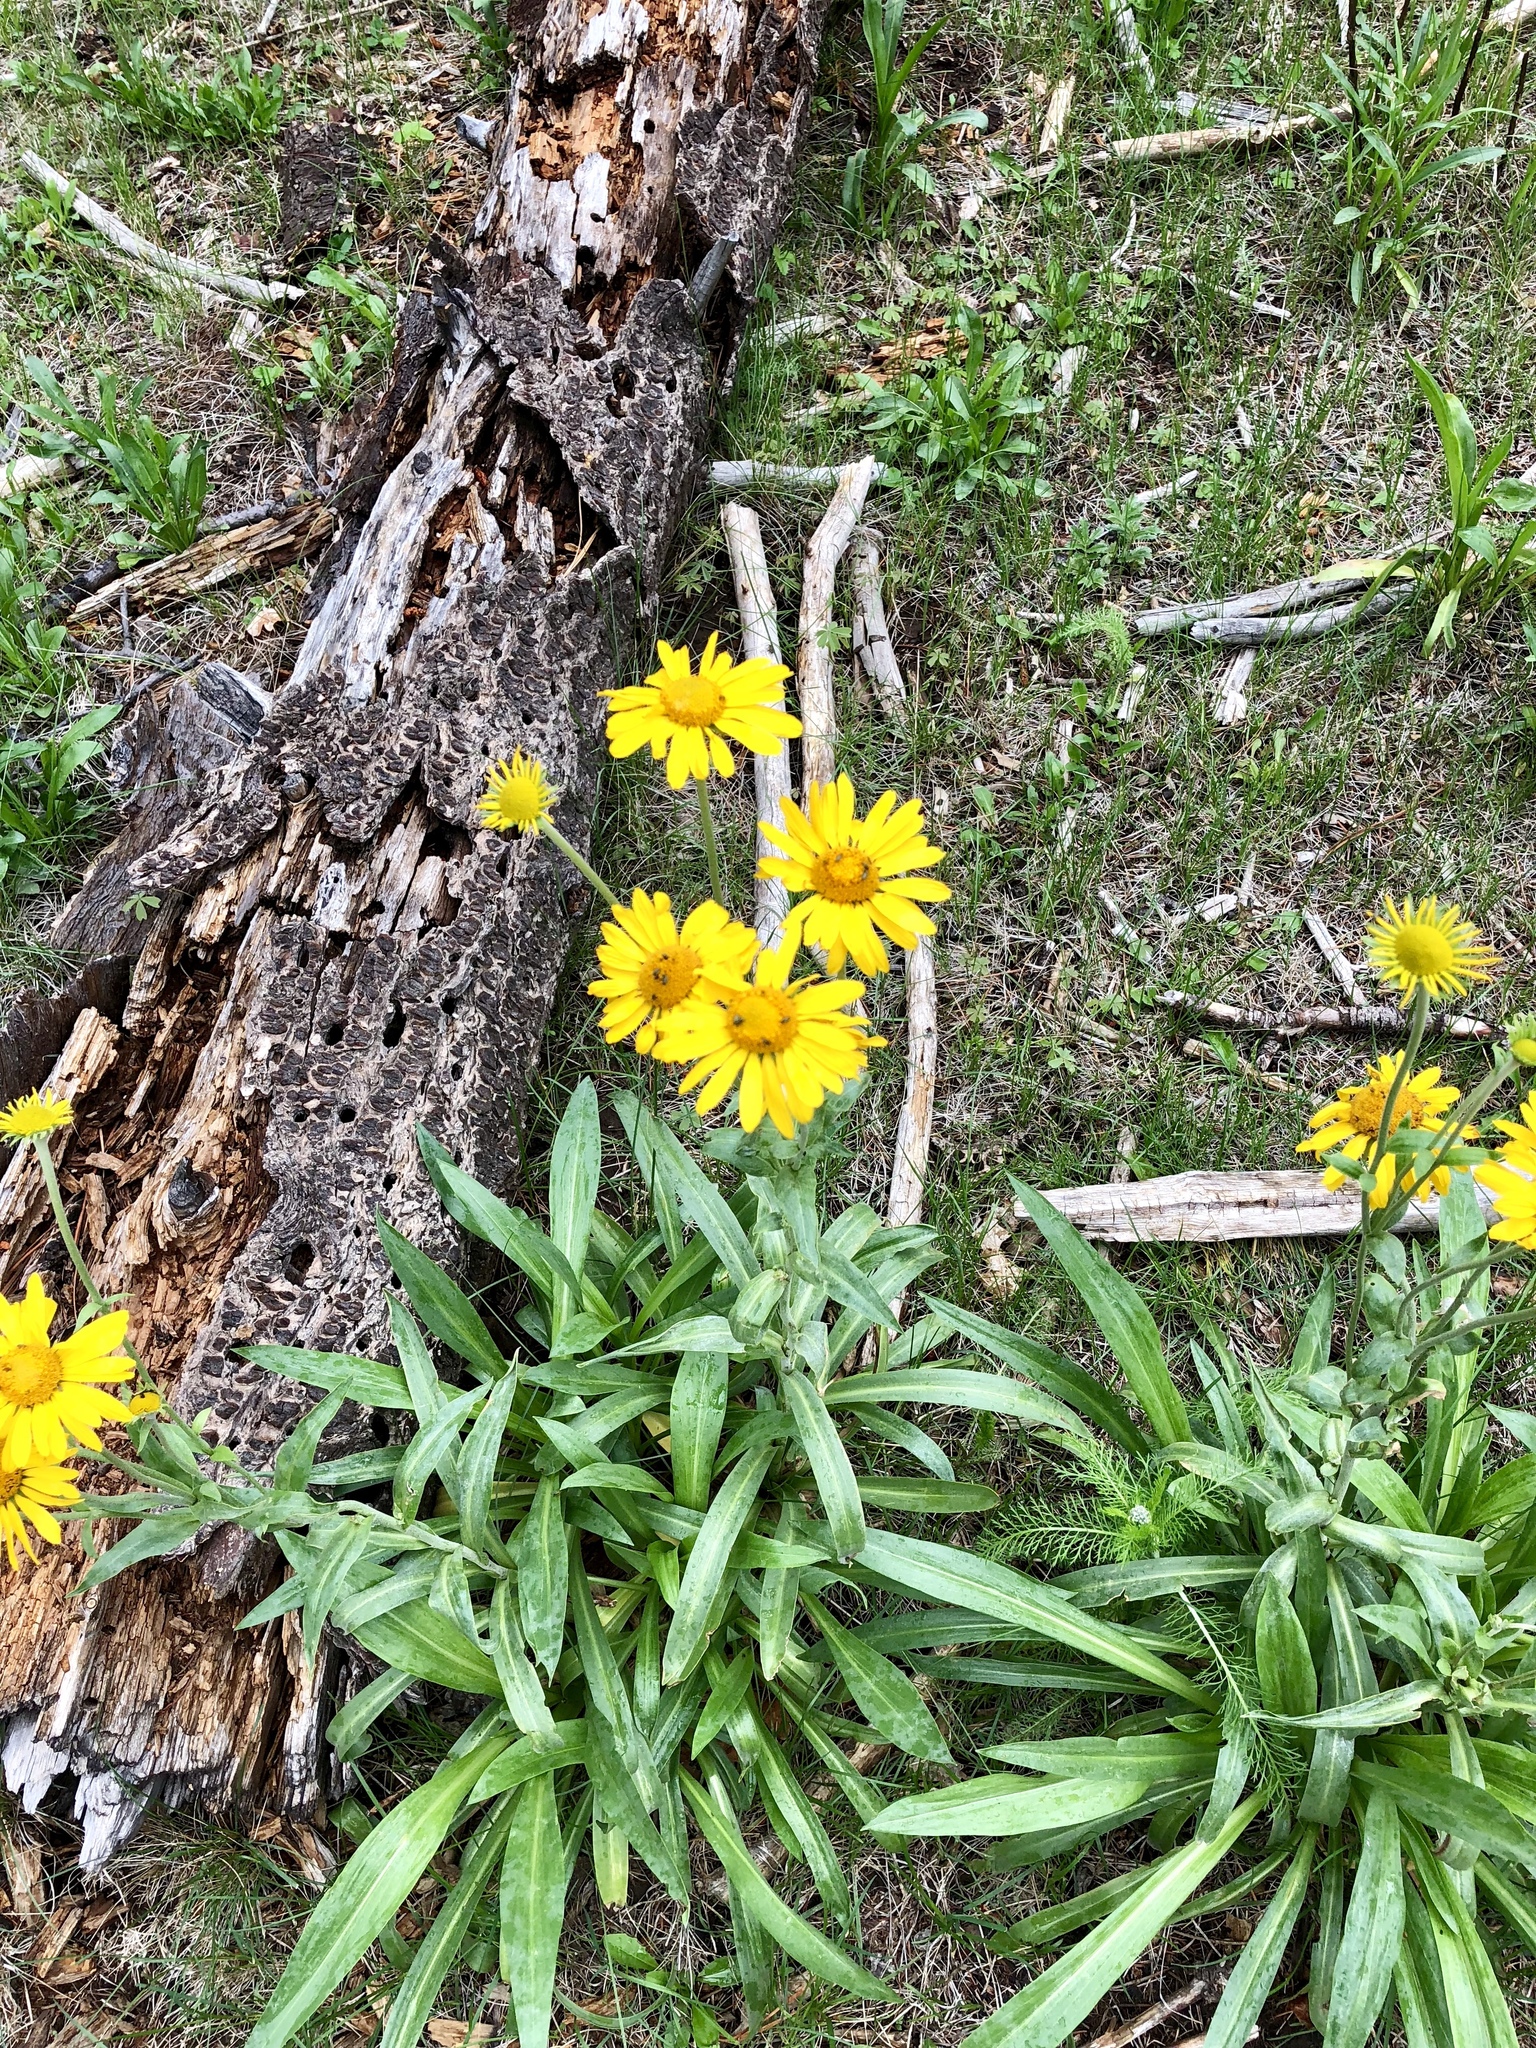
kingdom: Plantae
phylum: Tracheophyta
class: Magnoliopsida
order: Asterales
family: Asteraceae
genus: Hymenoxys
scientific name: Hymenoxys hoopesii
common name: Orange-sneezeweed
